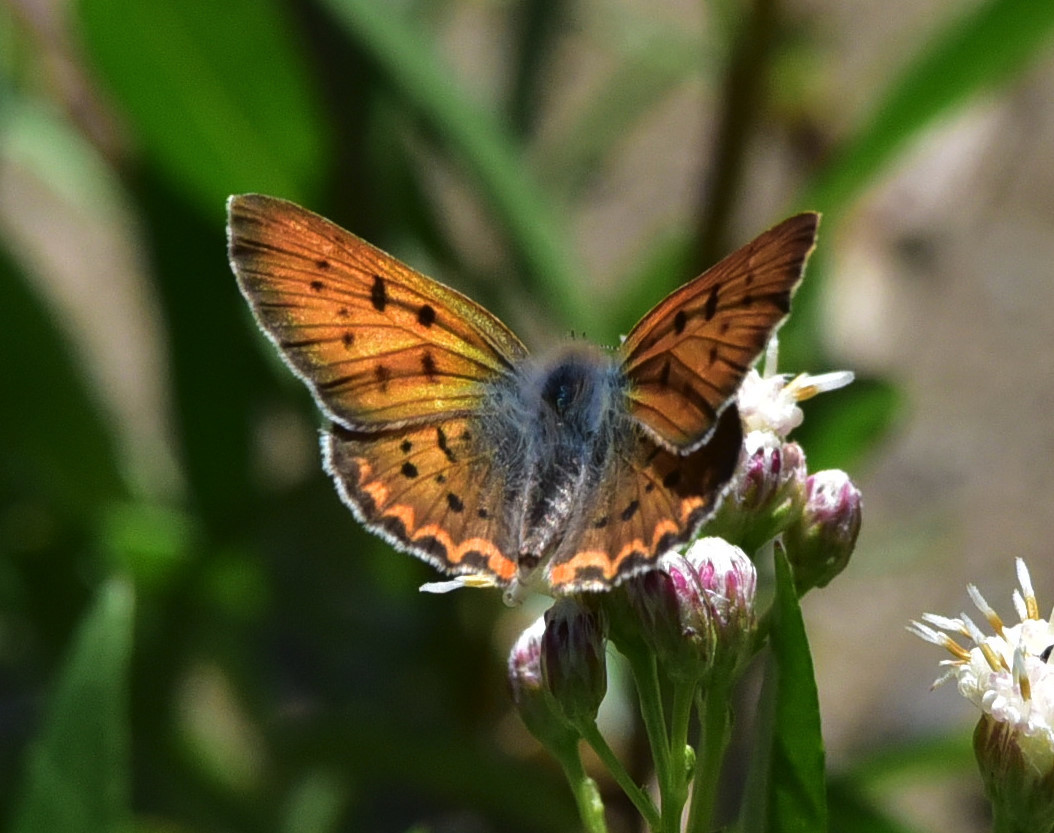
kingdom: Animalia
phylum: Arthropoda
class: Insecta
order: Lepidoptera
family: Lycaenidae
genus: Tharsalea
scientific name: Tharsalea helloides
